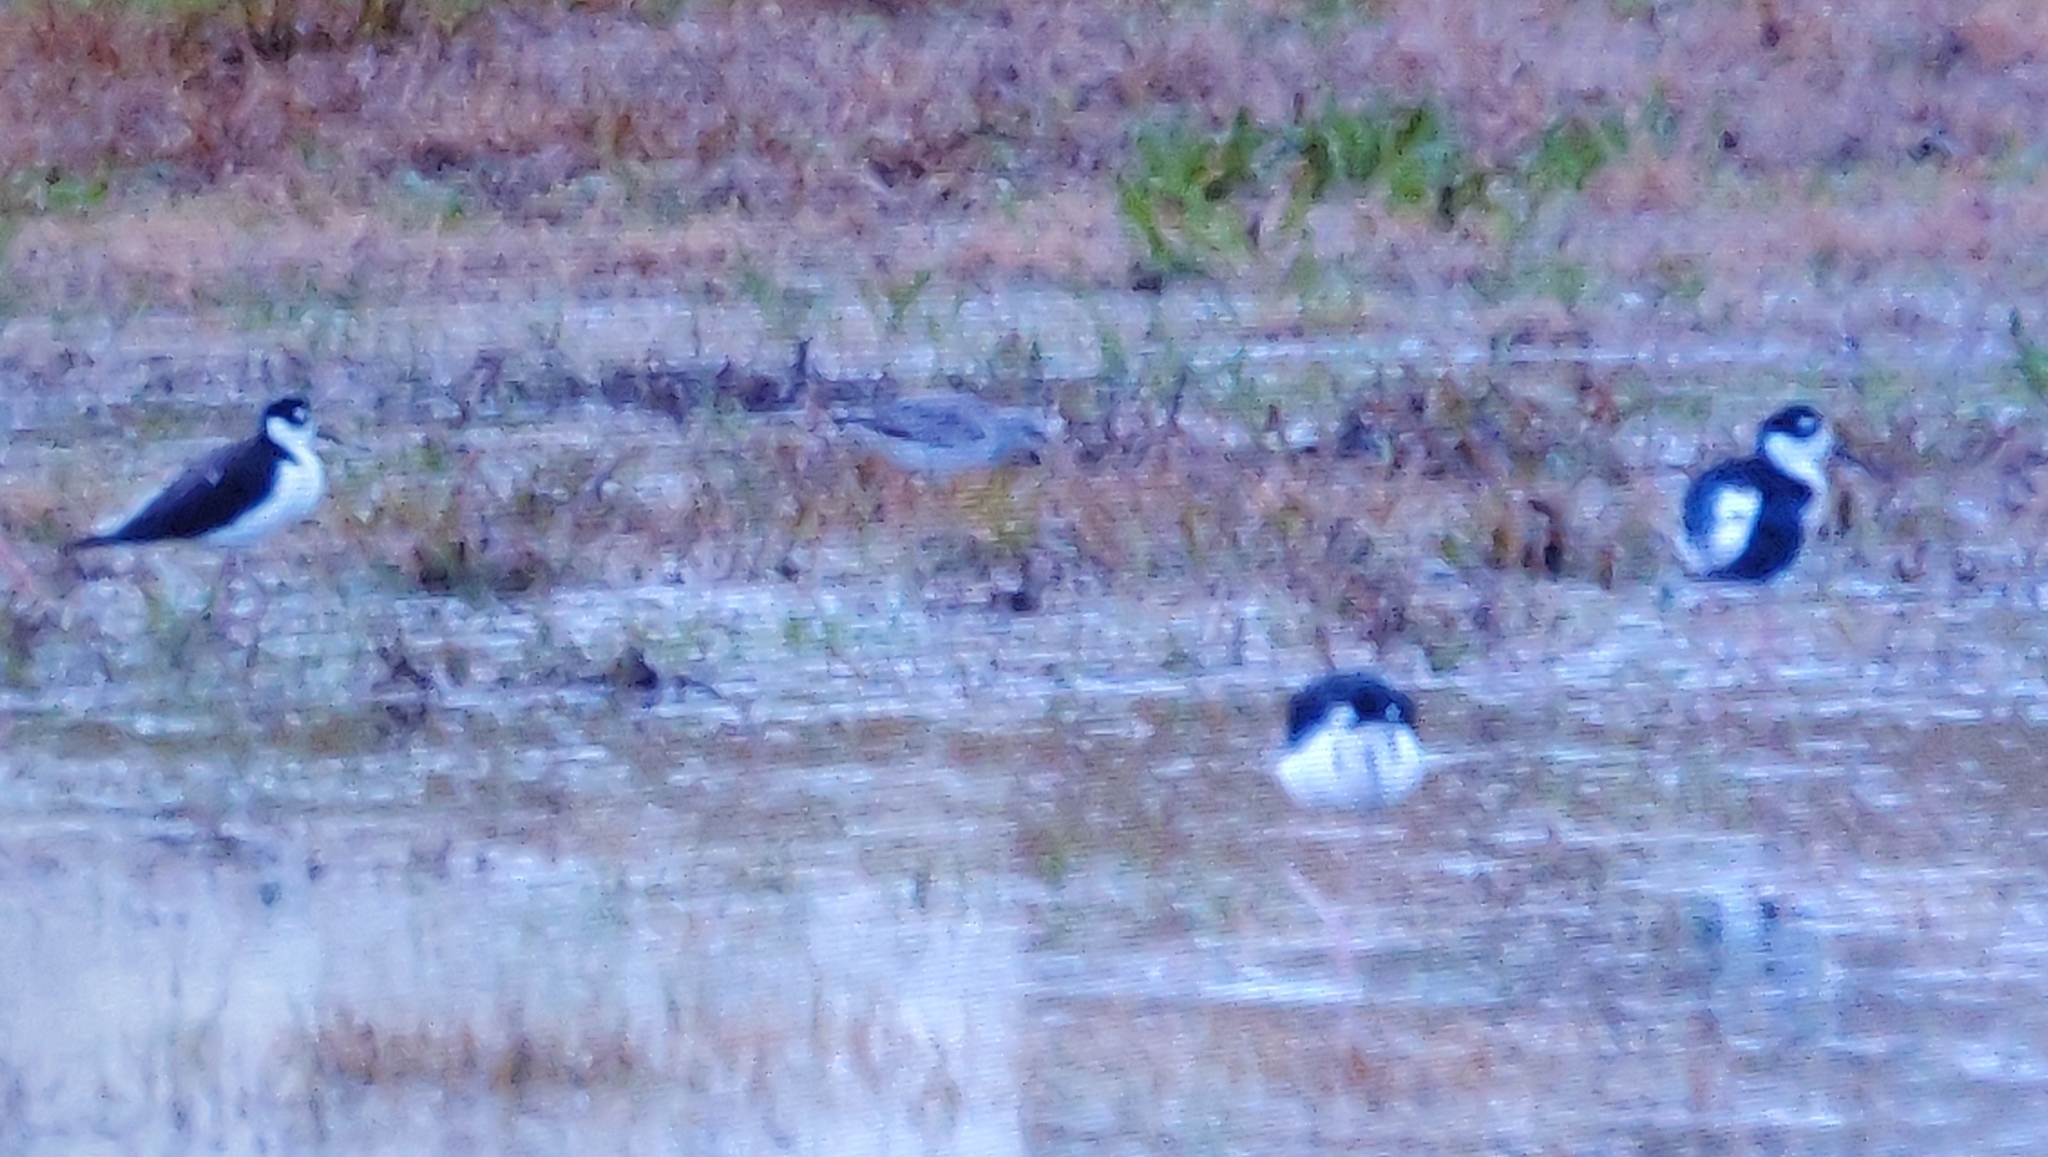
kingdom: Animalia
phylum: Chordata
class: Aves
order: Charadriiformes
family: Recurvirostridae
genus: Himantopus
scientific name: Himantopus mexicanus
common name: Black-necked stilt
